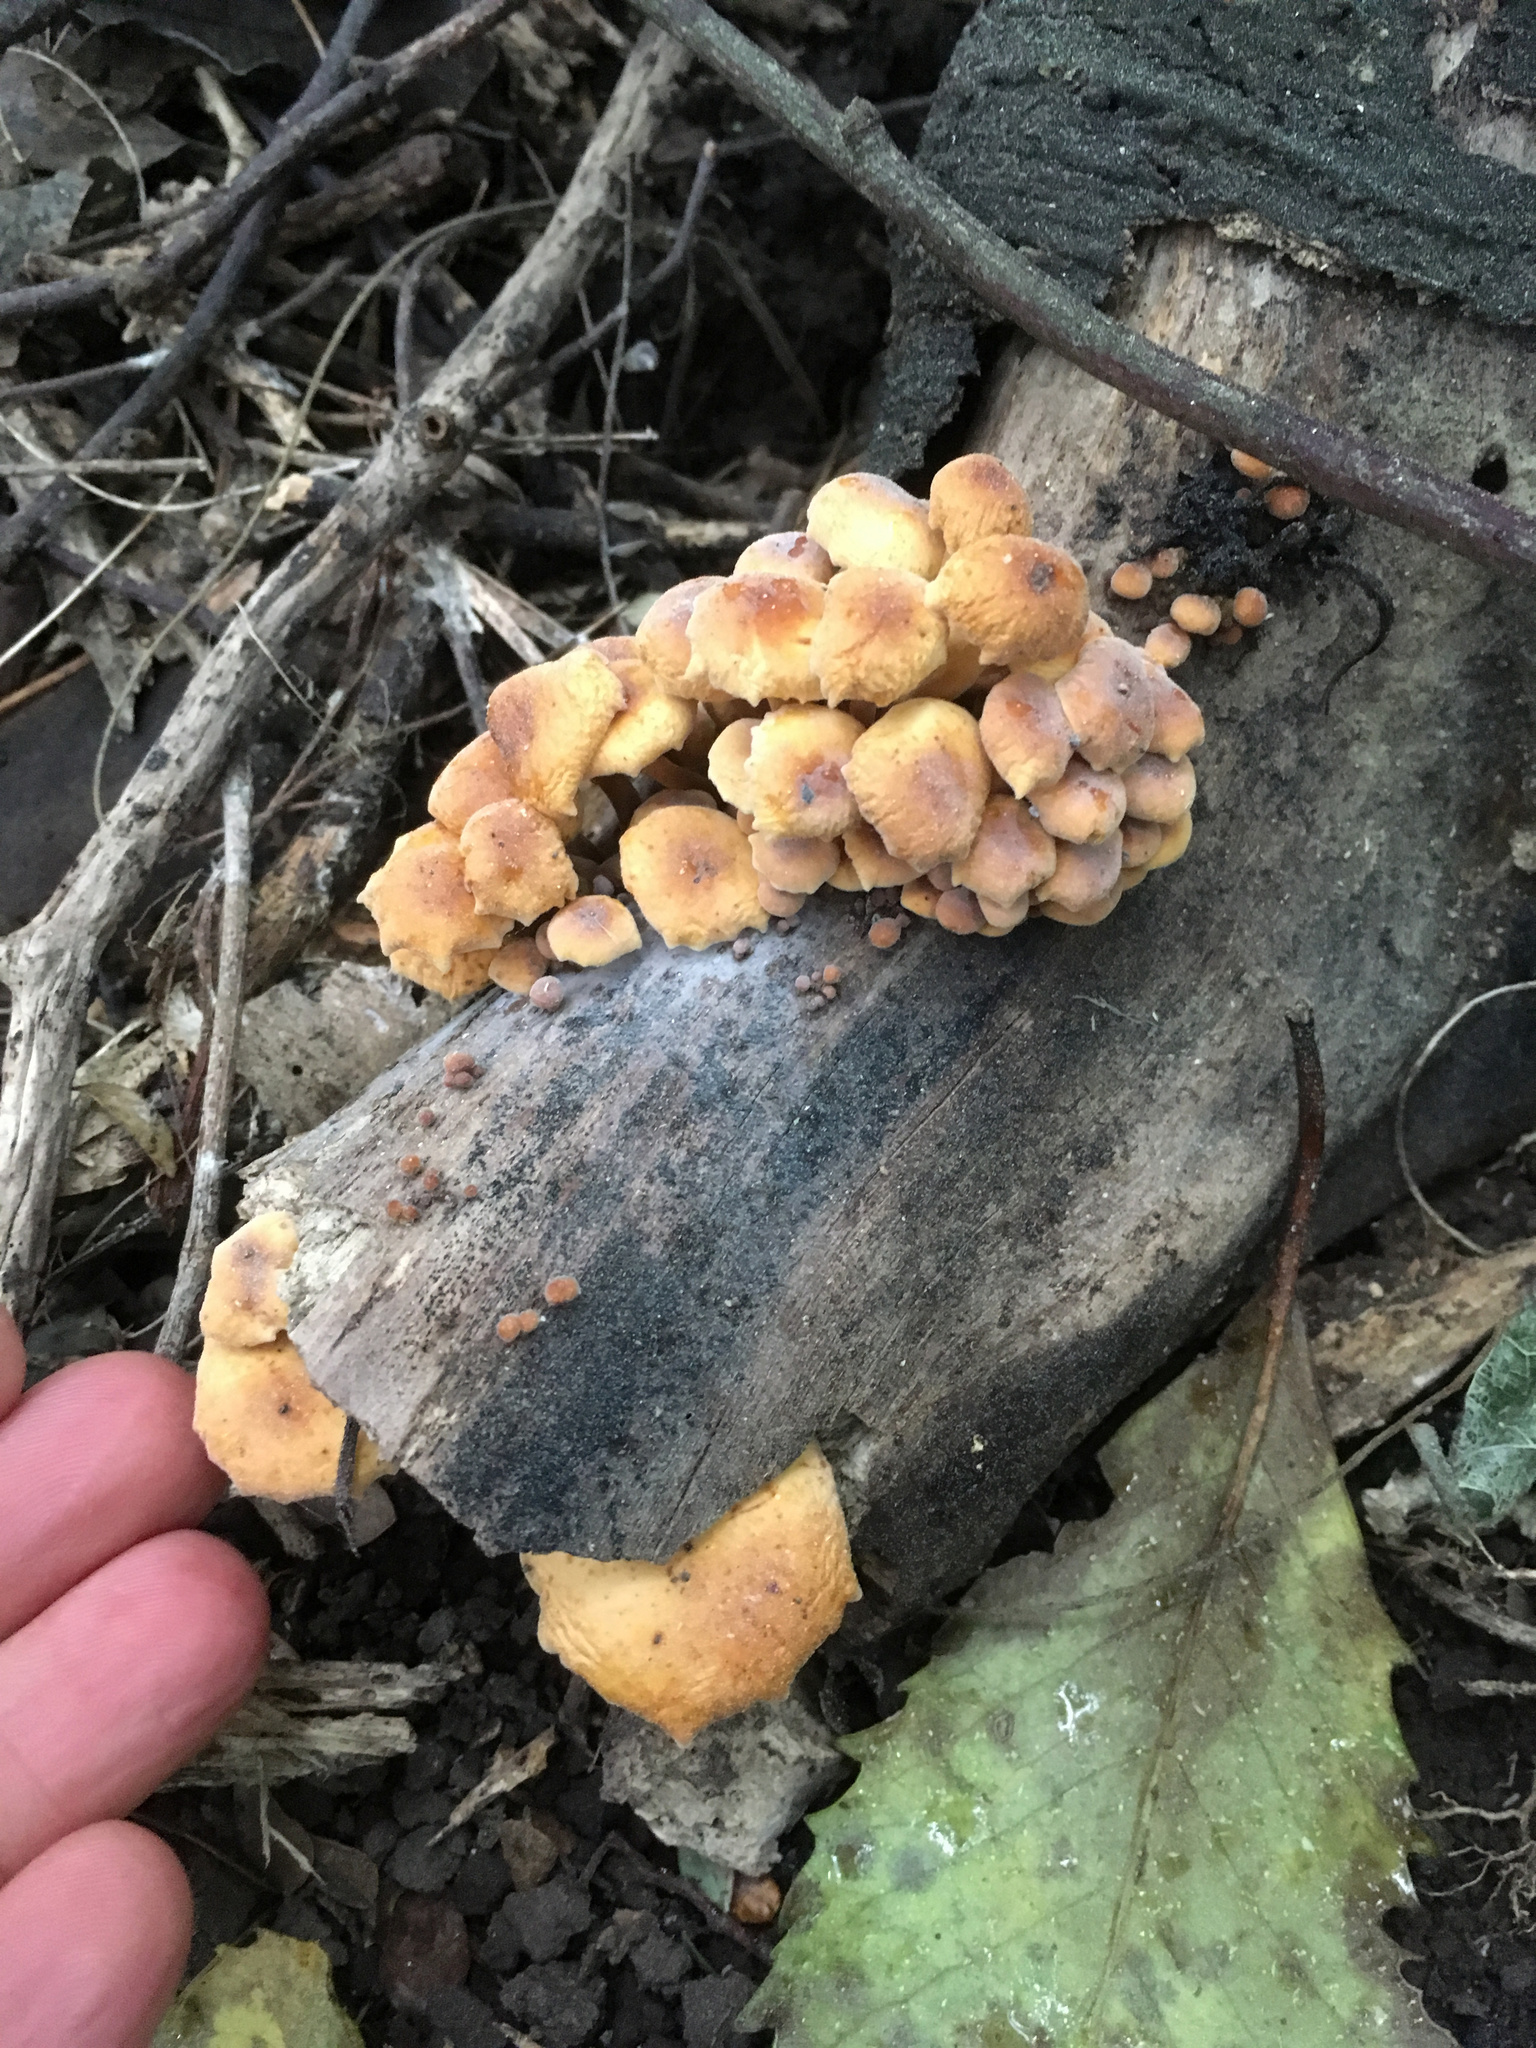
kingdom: Fungi
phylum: Basidiomycota
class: Agaricomycetes
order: Agaricales
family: Physalacriaceae
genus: Flammulina
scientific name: Flammulina velutipes
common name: Velvet shank
